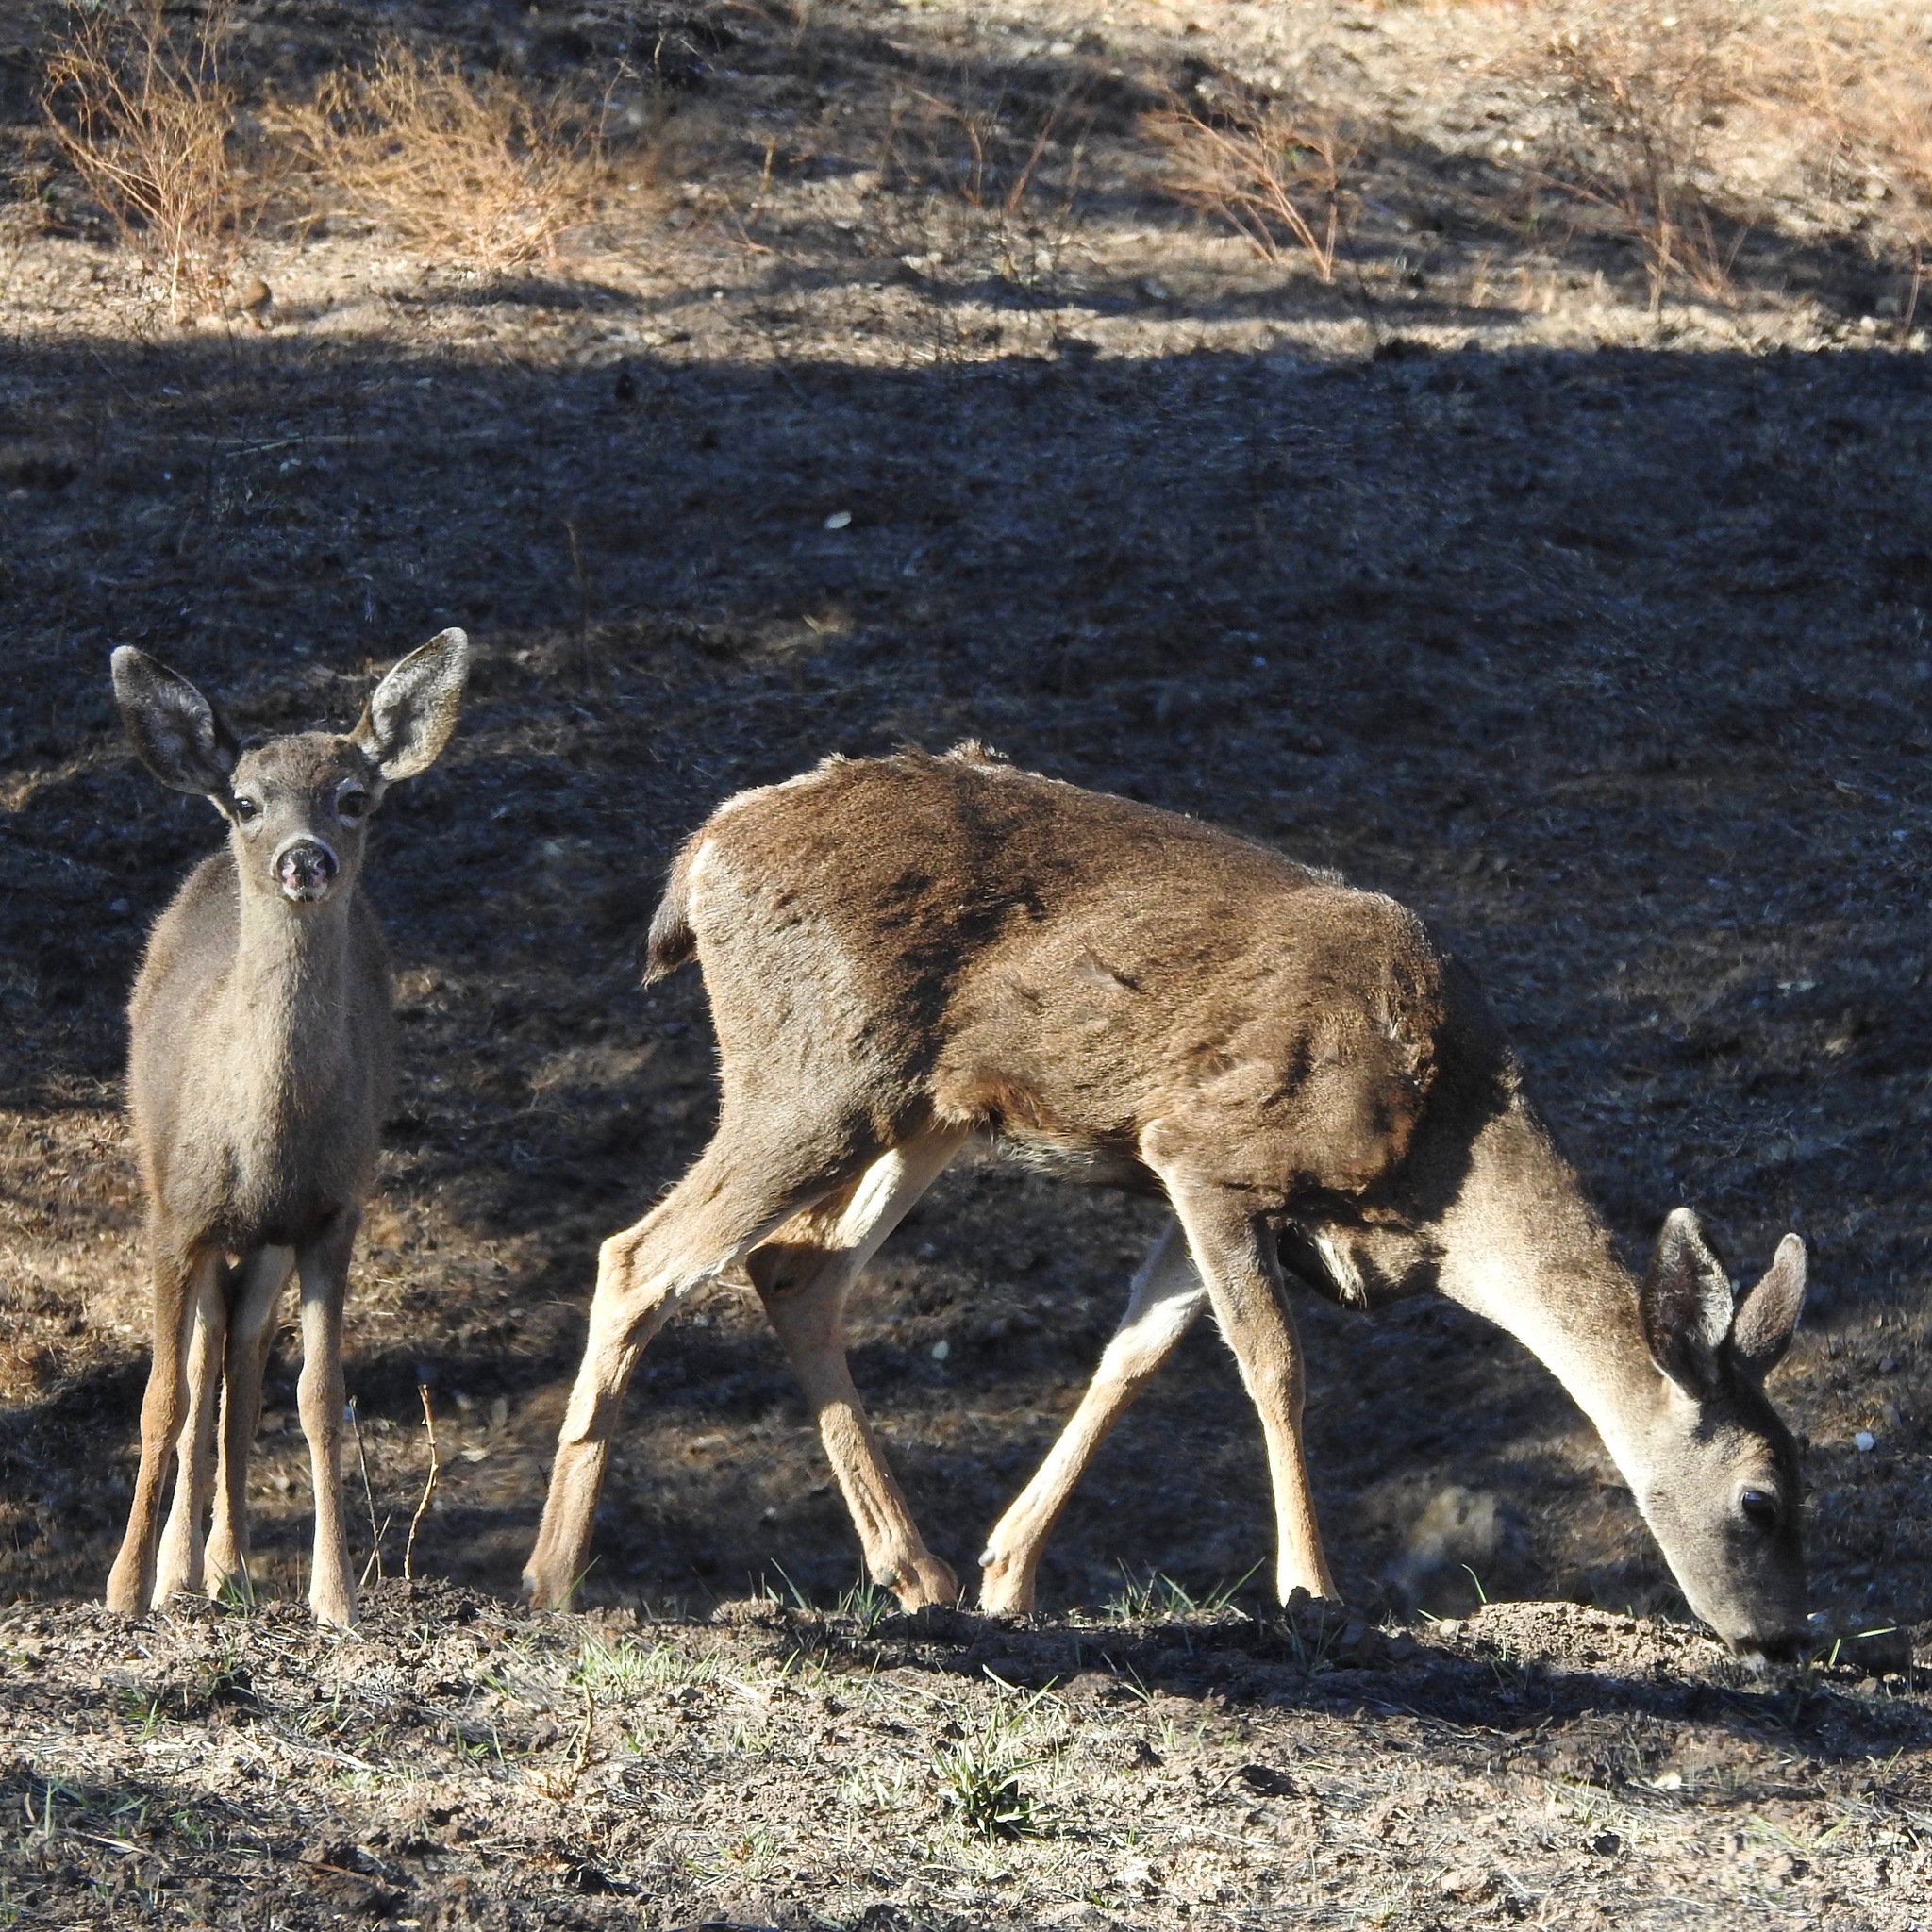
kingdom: Animalia
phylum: Chordata
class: Mammalia
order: Artiodactyla
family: Cervidae
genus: Odocoileus
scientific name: Odocoileus hemionus
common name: Mule deer
